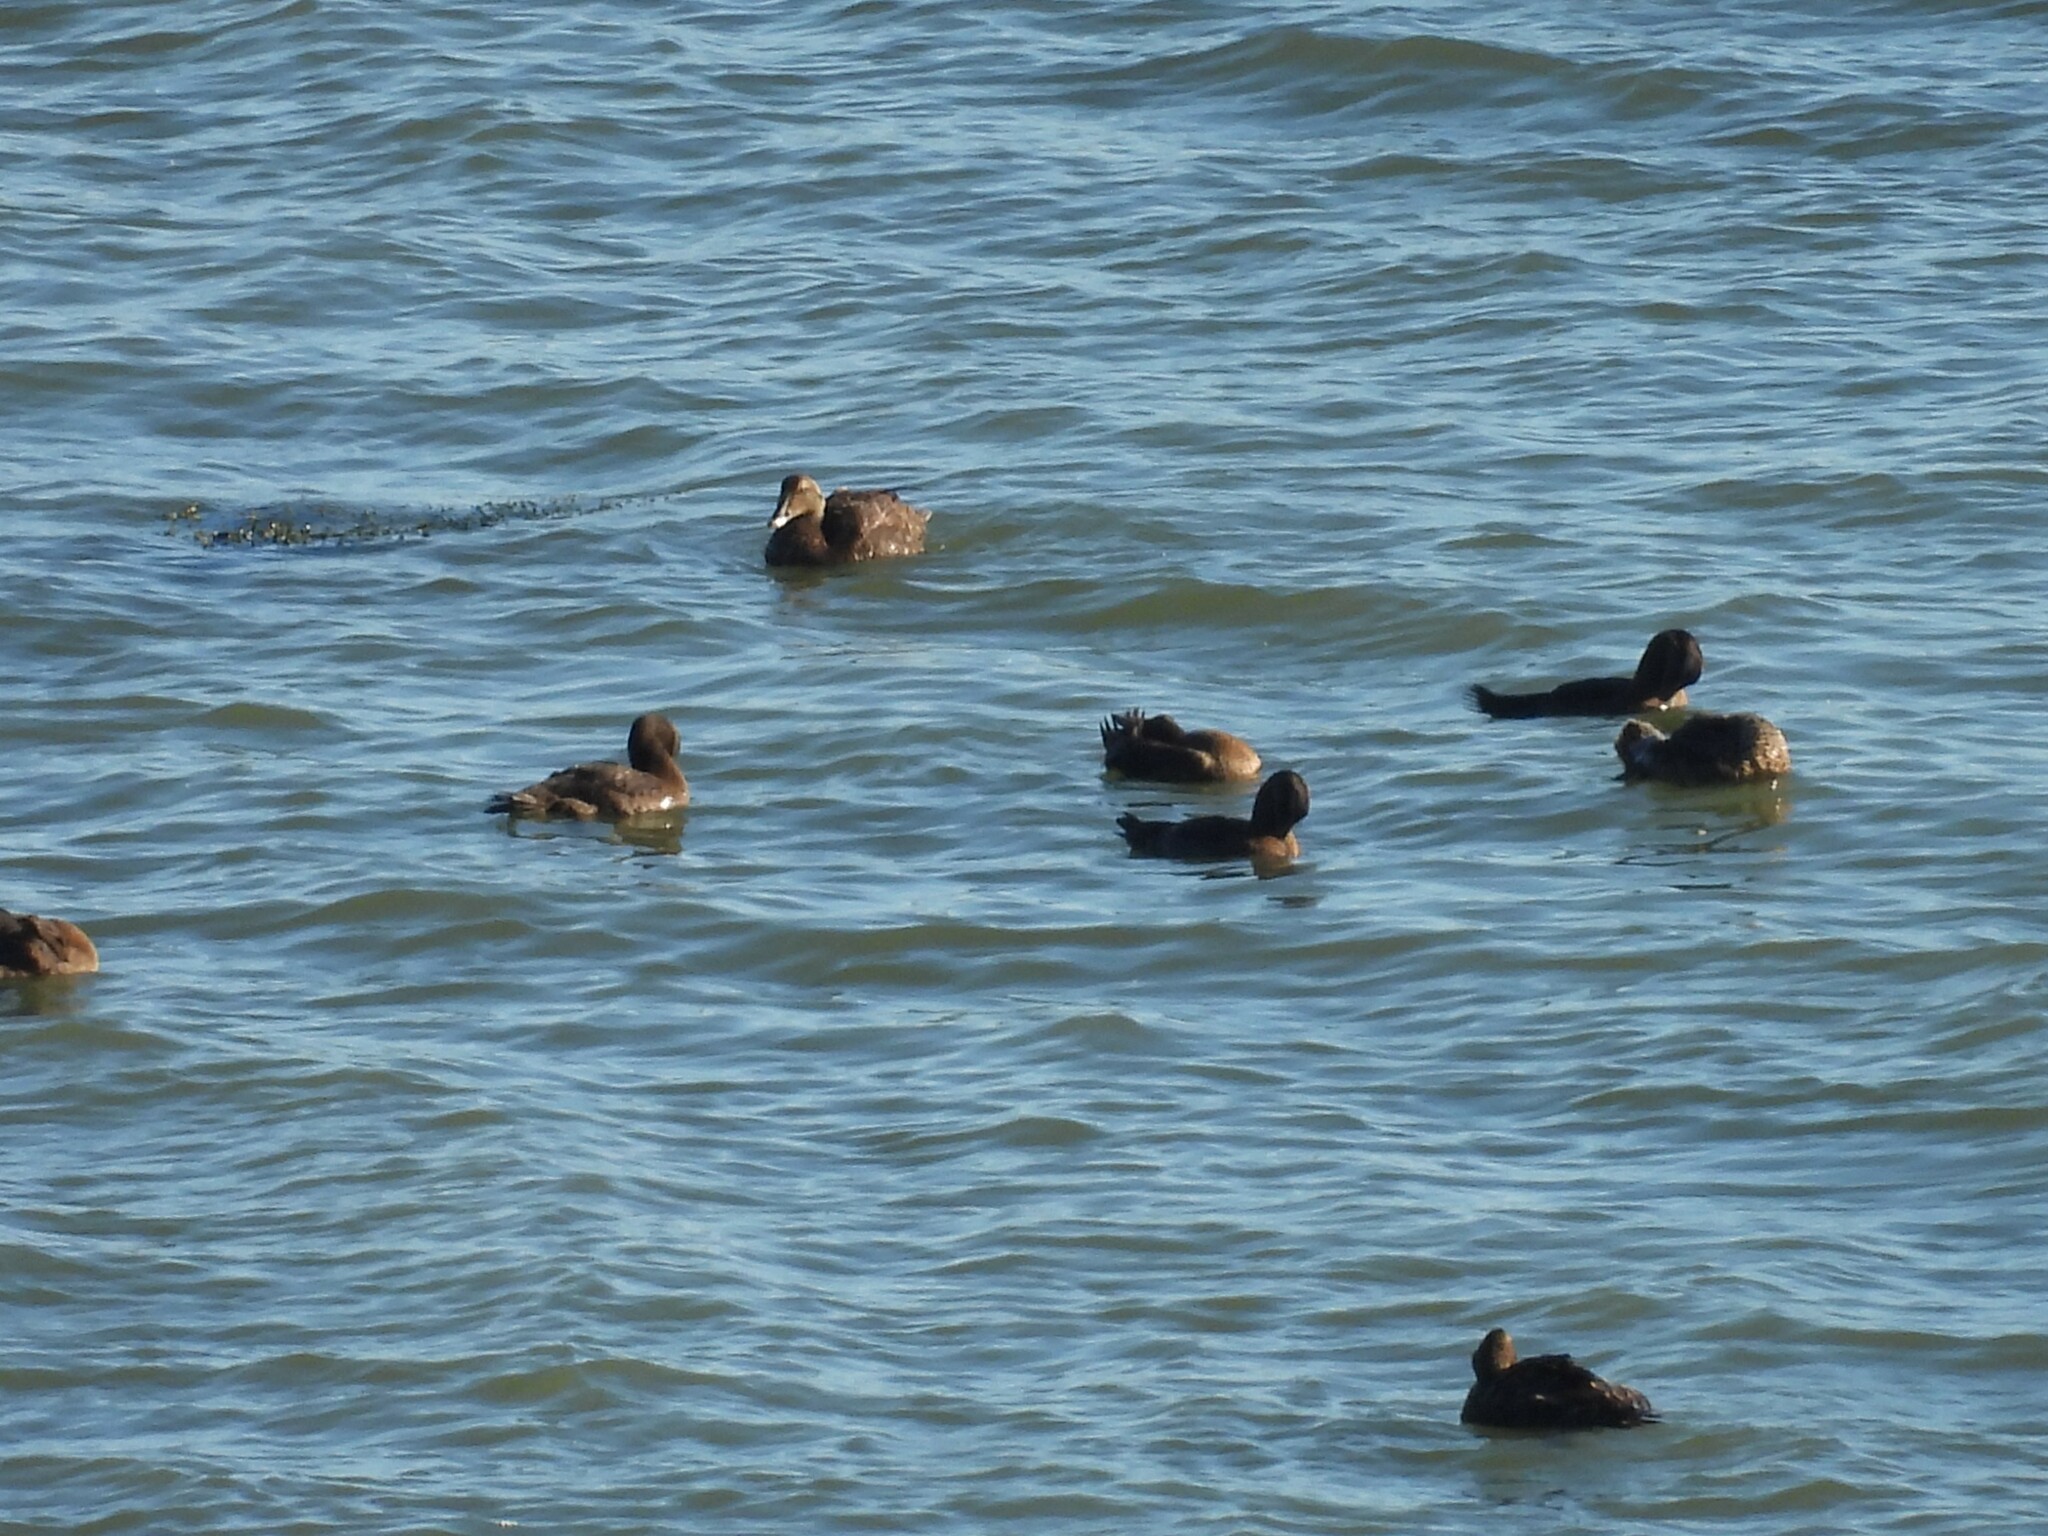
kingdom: Animalia
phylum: Chordata
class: Aves
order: Anseriformes
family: Anatidae
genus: Somateria
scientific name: Somateria mollissima
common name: Common eider
